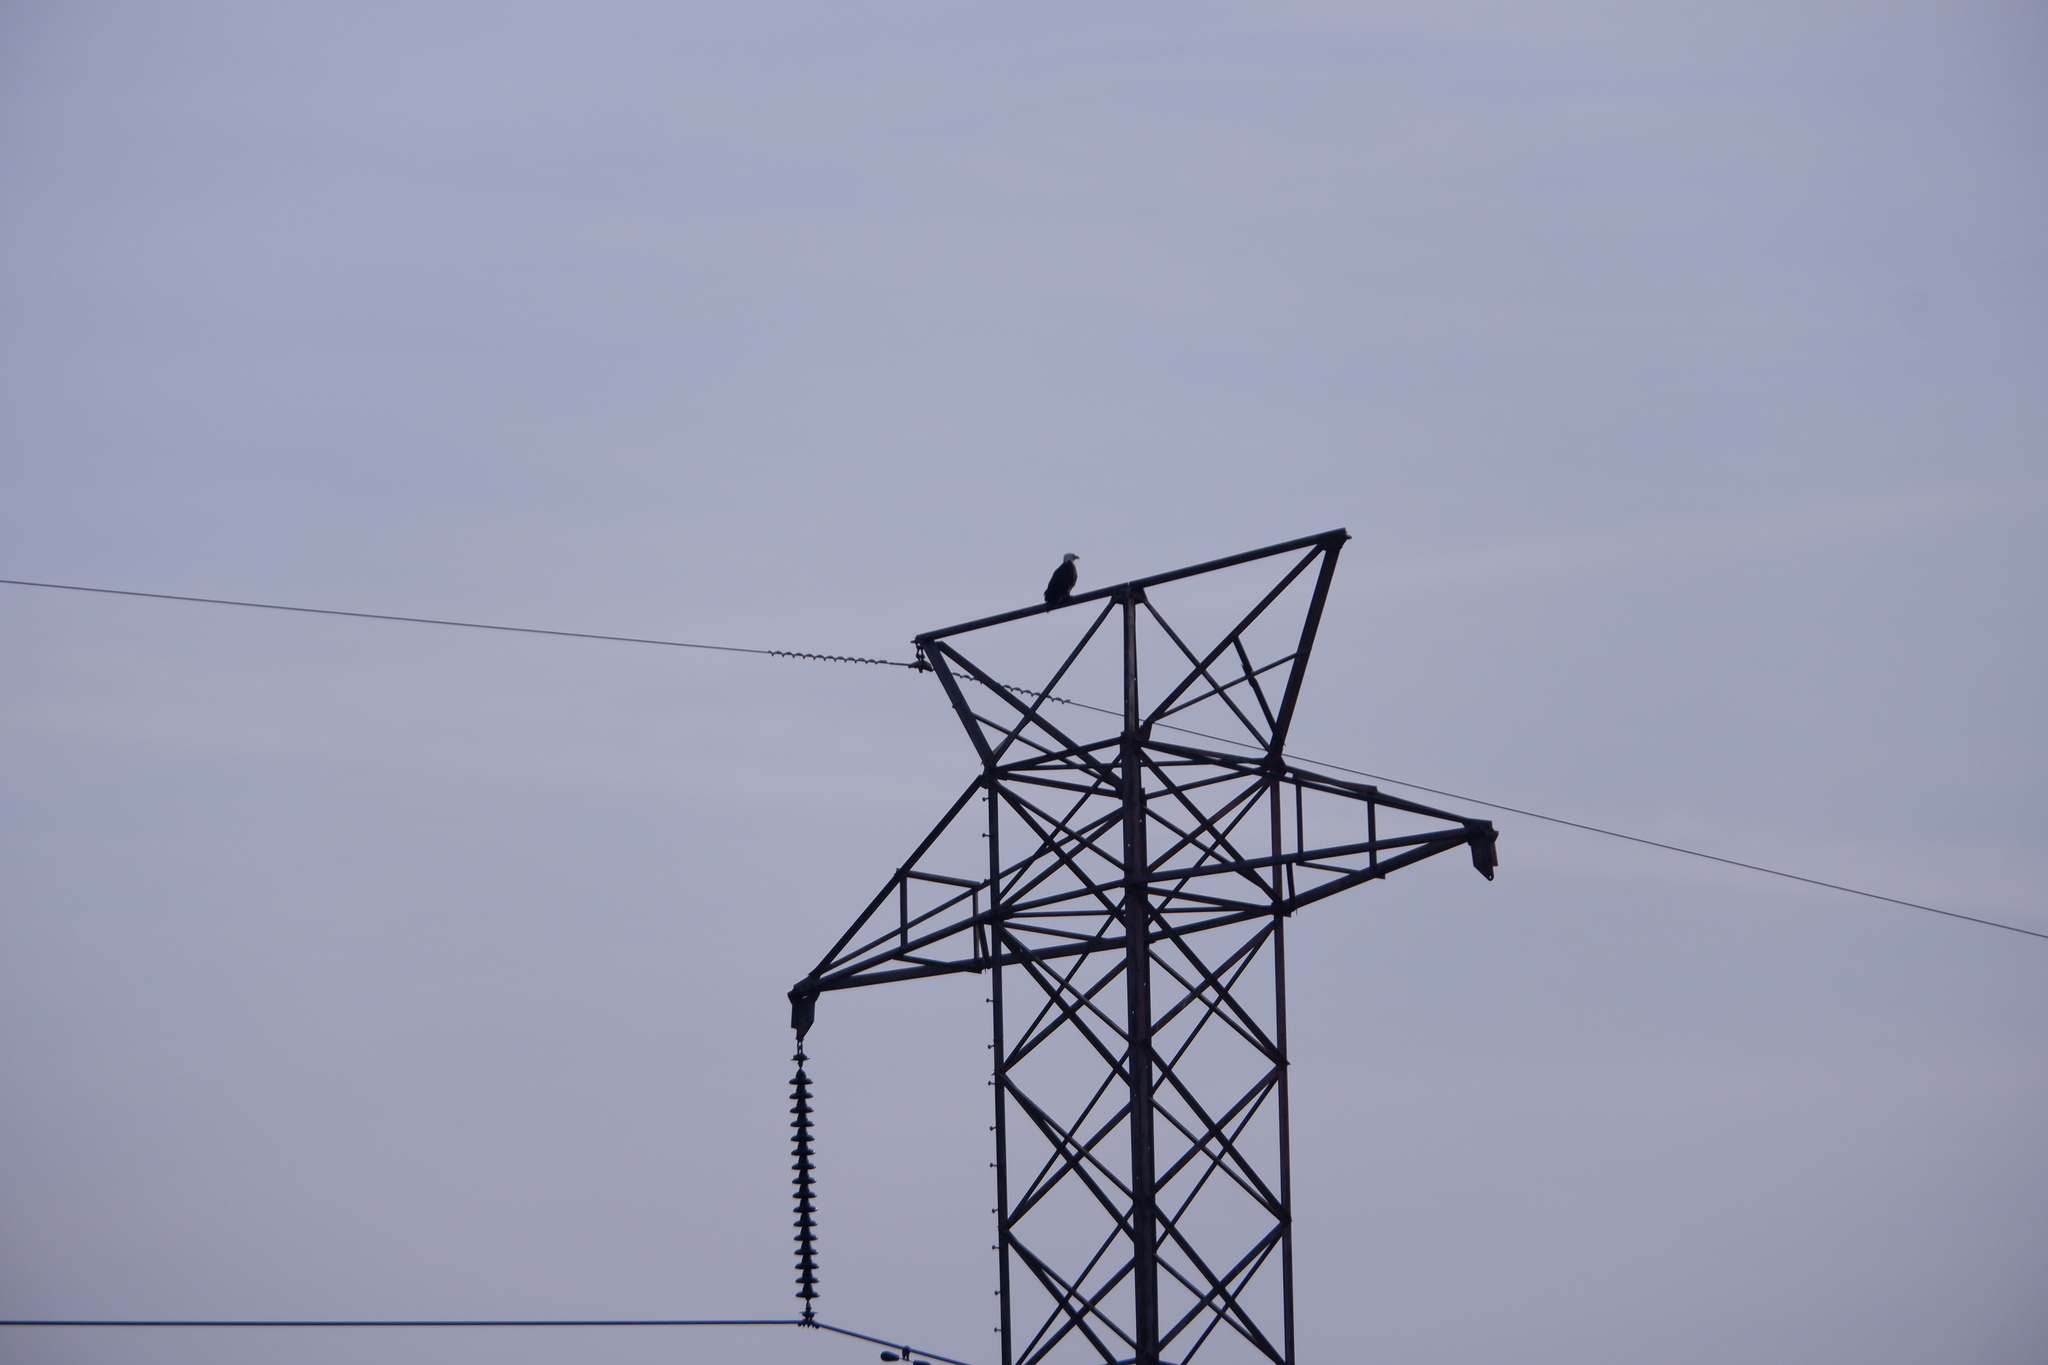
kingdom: Animalia
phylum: Chordata
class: Aves
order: Accipitriformes
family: Accipitridae
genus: Haliaeetus
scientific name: Haliaeetus leucocephalus
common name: Bald eagle
